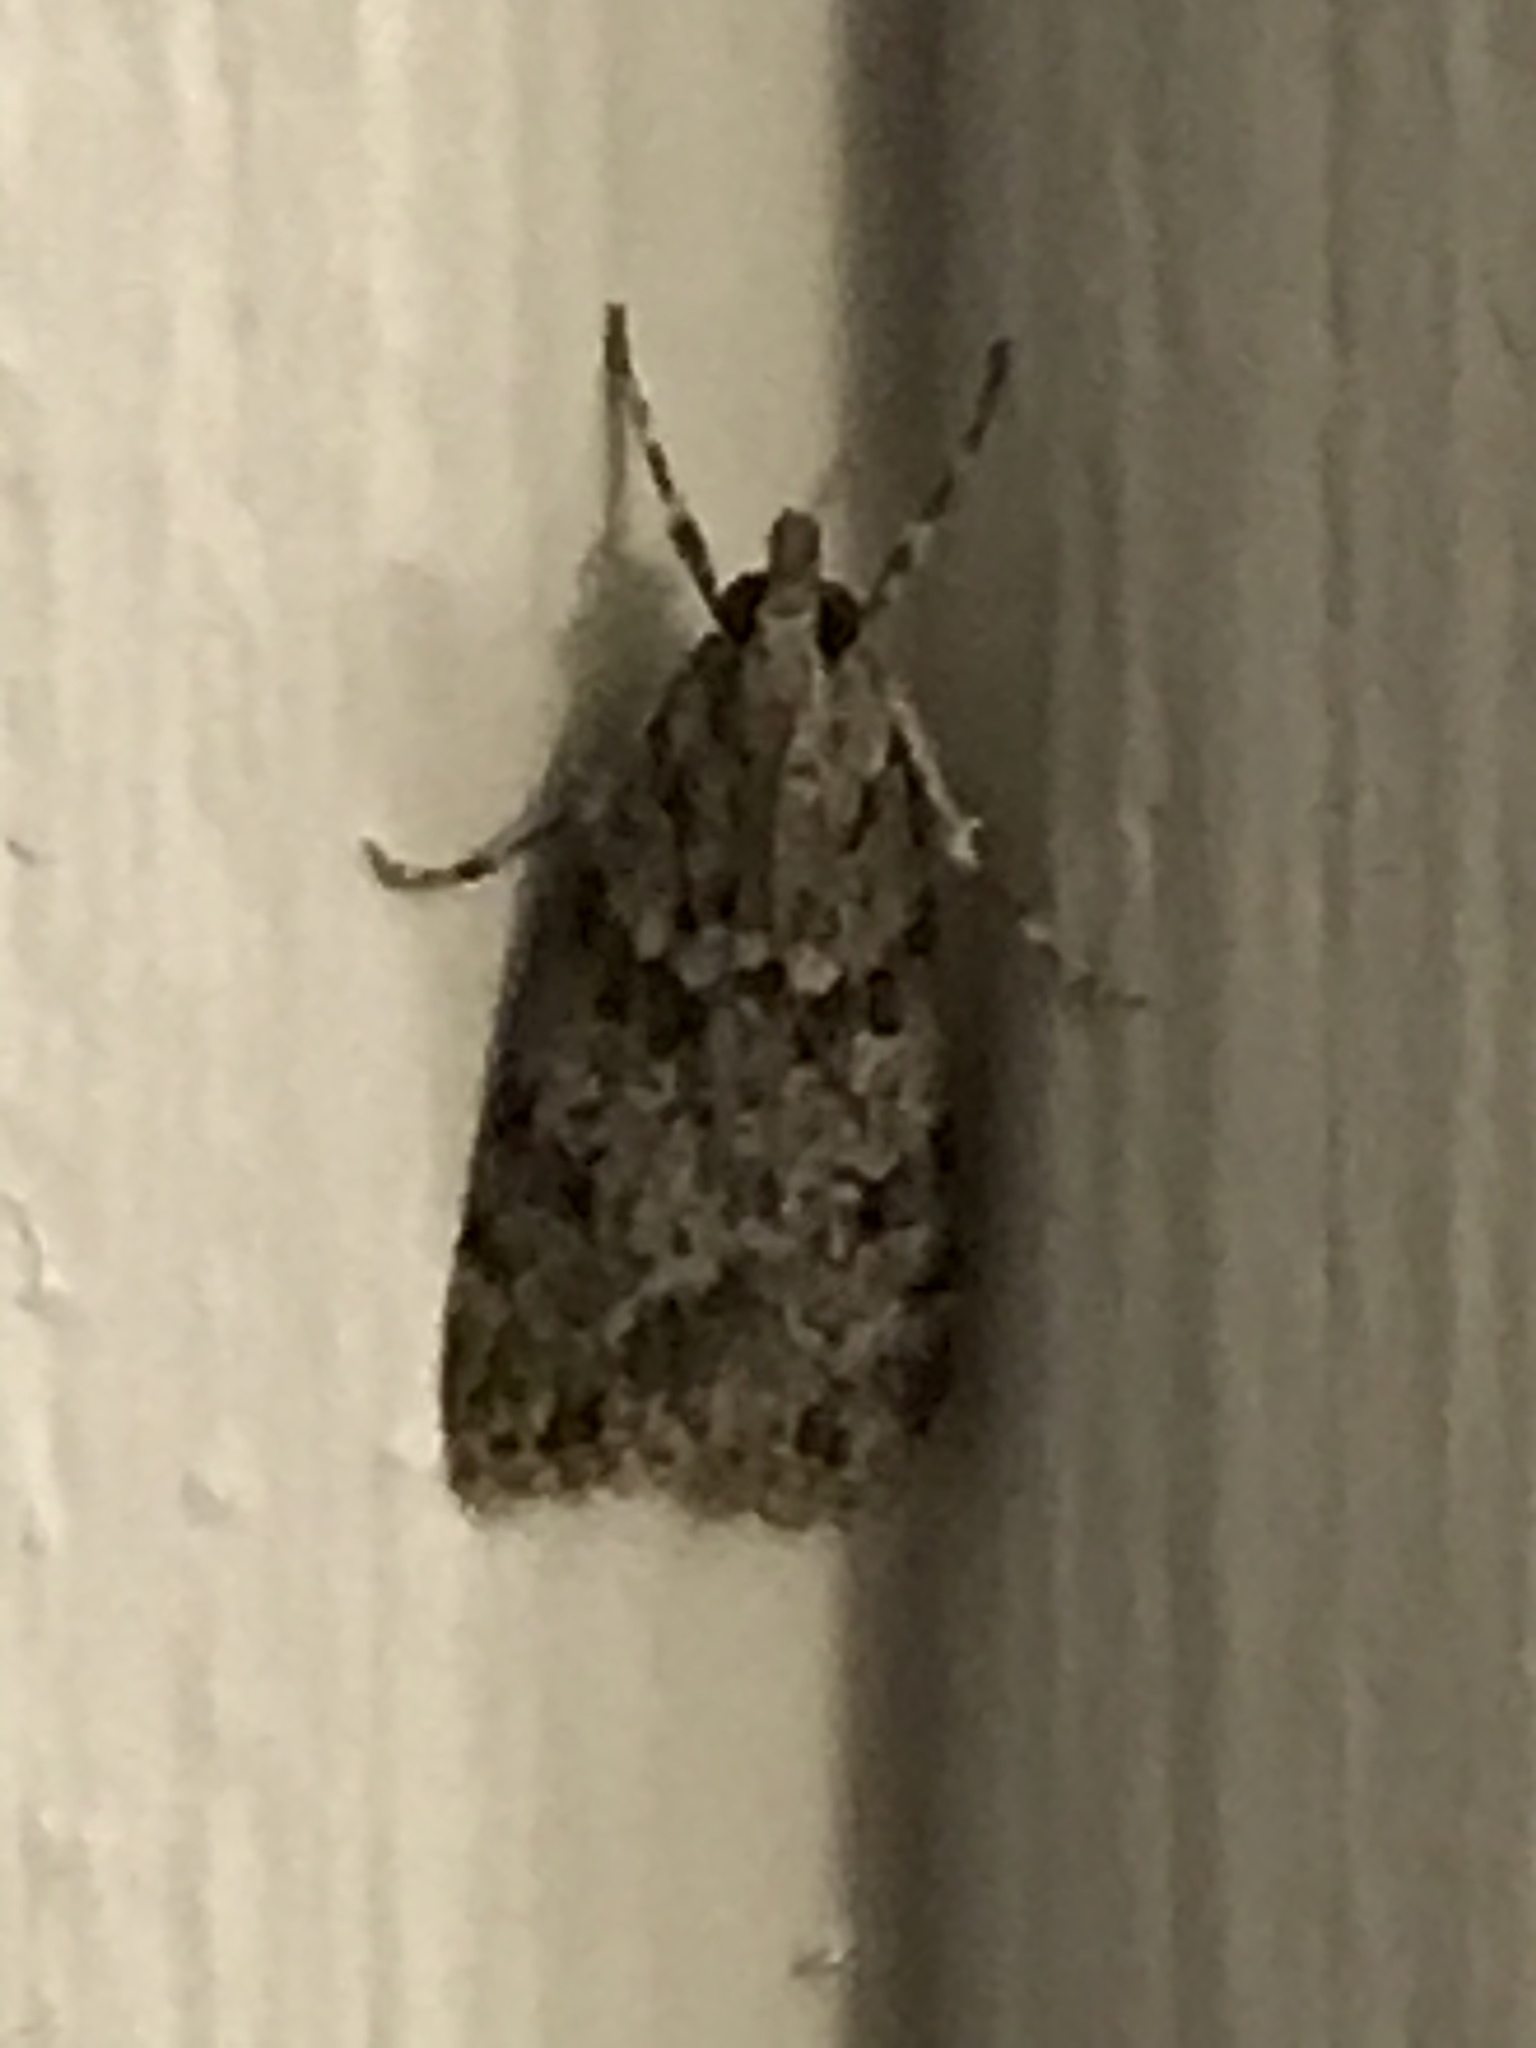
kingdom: Animalia
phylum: Arthropoda
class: Insecta
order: Lepidoptera
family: Crambidae
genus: Scoparia
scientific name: Scoparia biplagialis
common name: Double-striped scoparia moth
